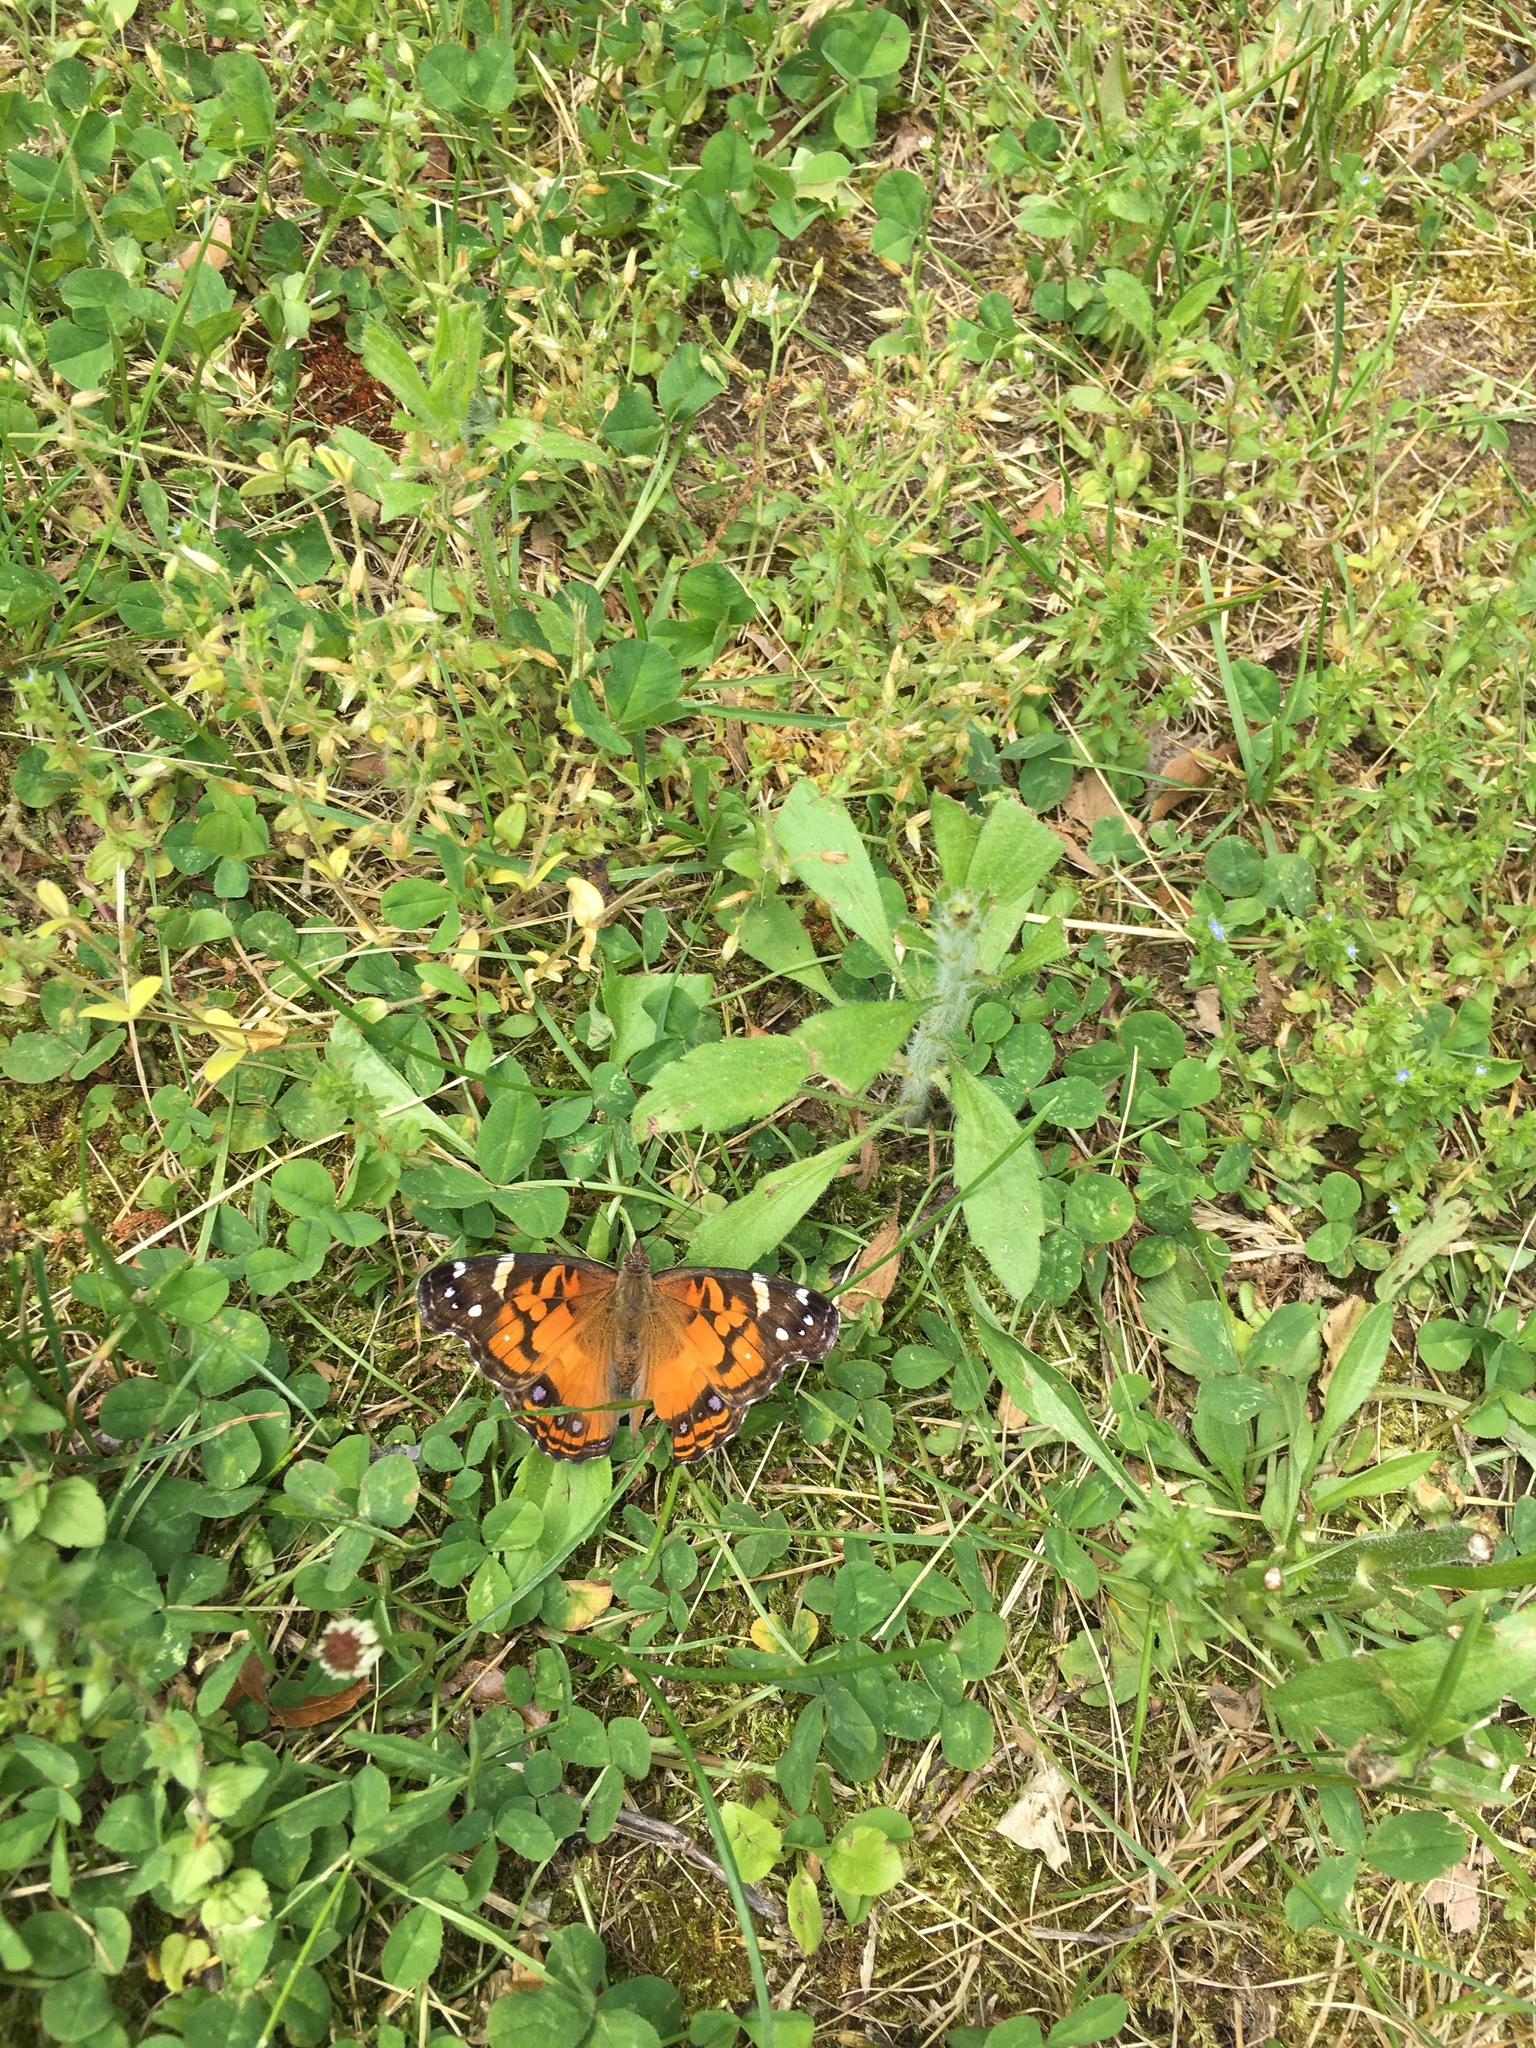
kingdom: Animalia
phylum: Arthropoda
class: Insecta
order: Lepidoptera
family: Nymphalidae
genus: Vanessa
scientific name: Vanessa virginiensis
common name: American lady
